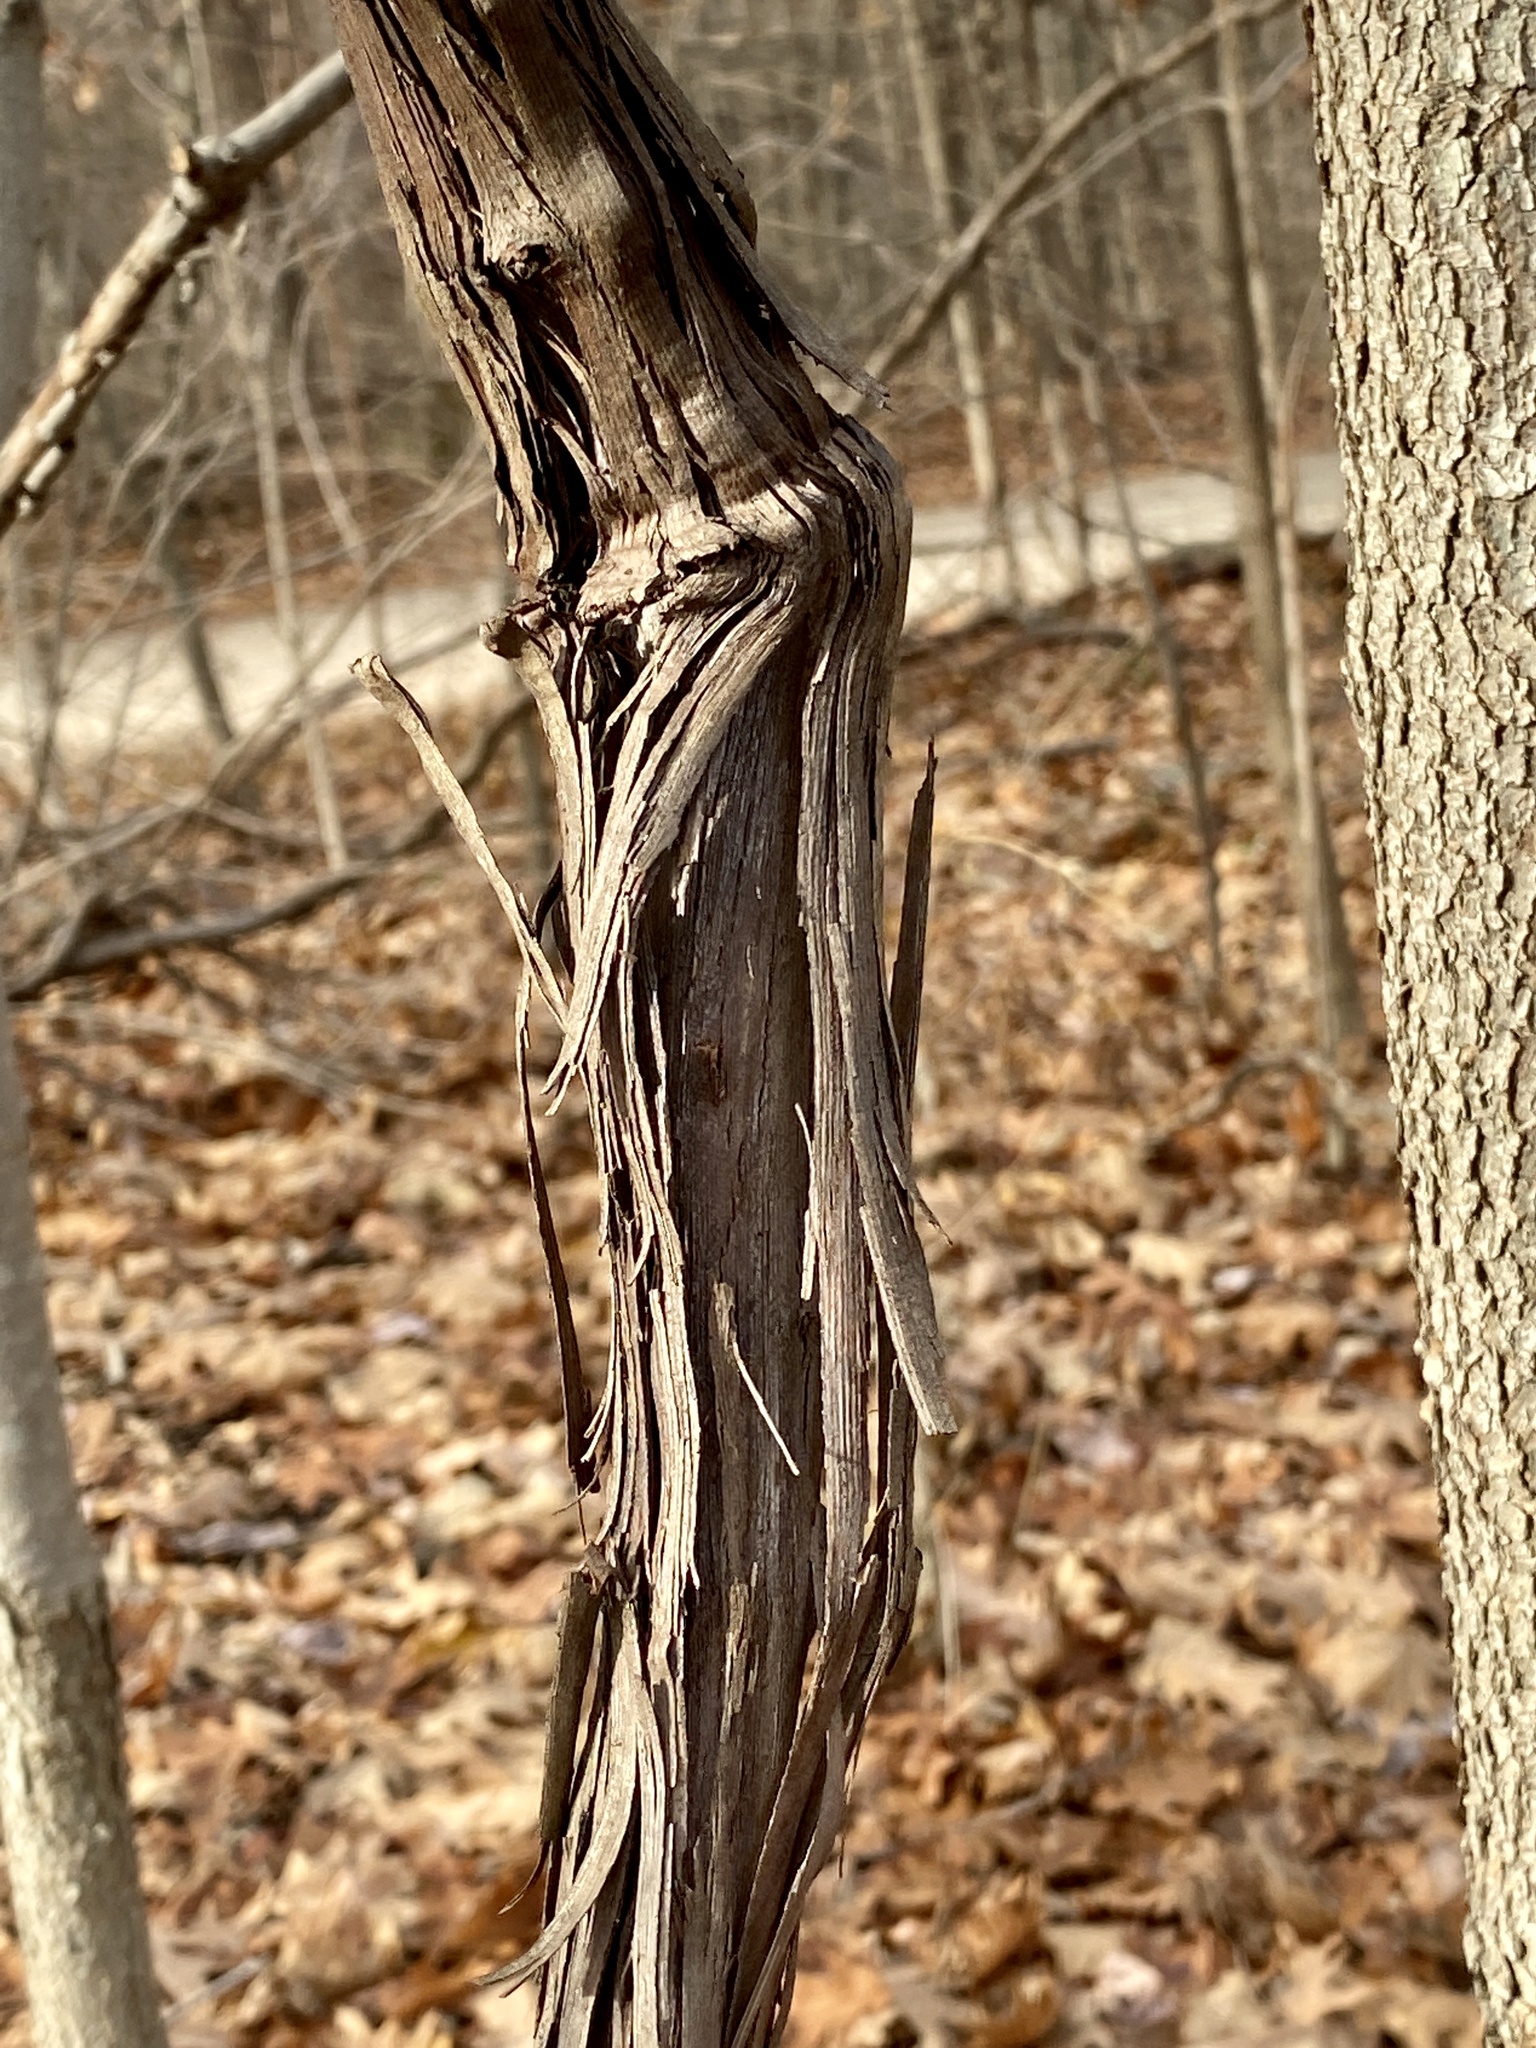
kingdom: Plantae
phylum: Tracheophyta
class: Magnoliopsida
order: Vitales
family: Vitaceae
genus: Vitis
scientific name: Vitis
